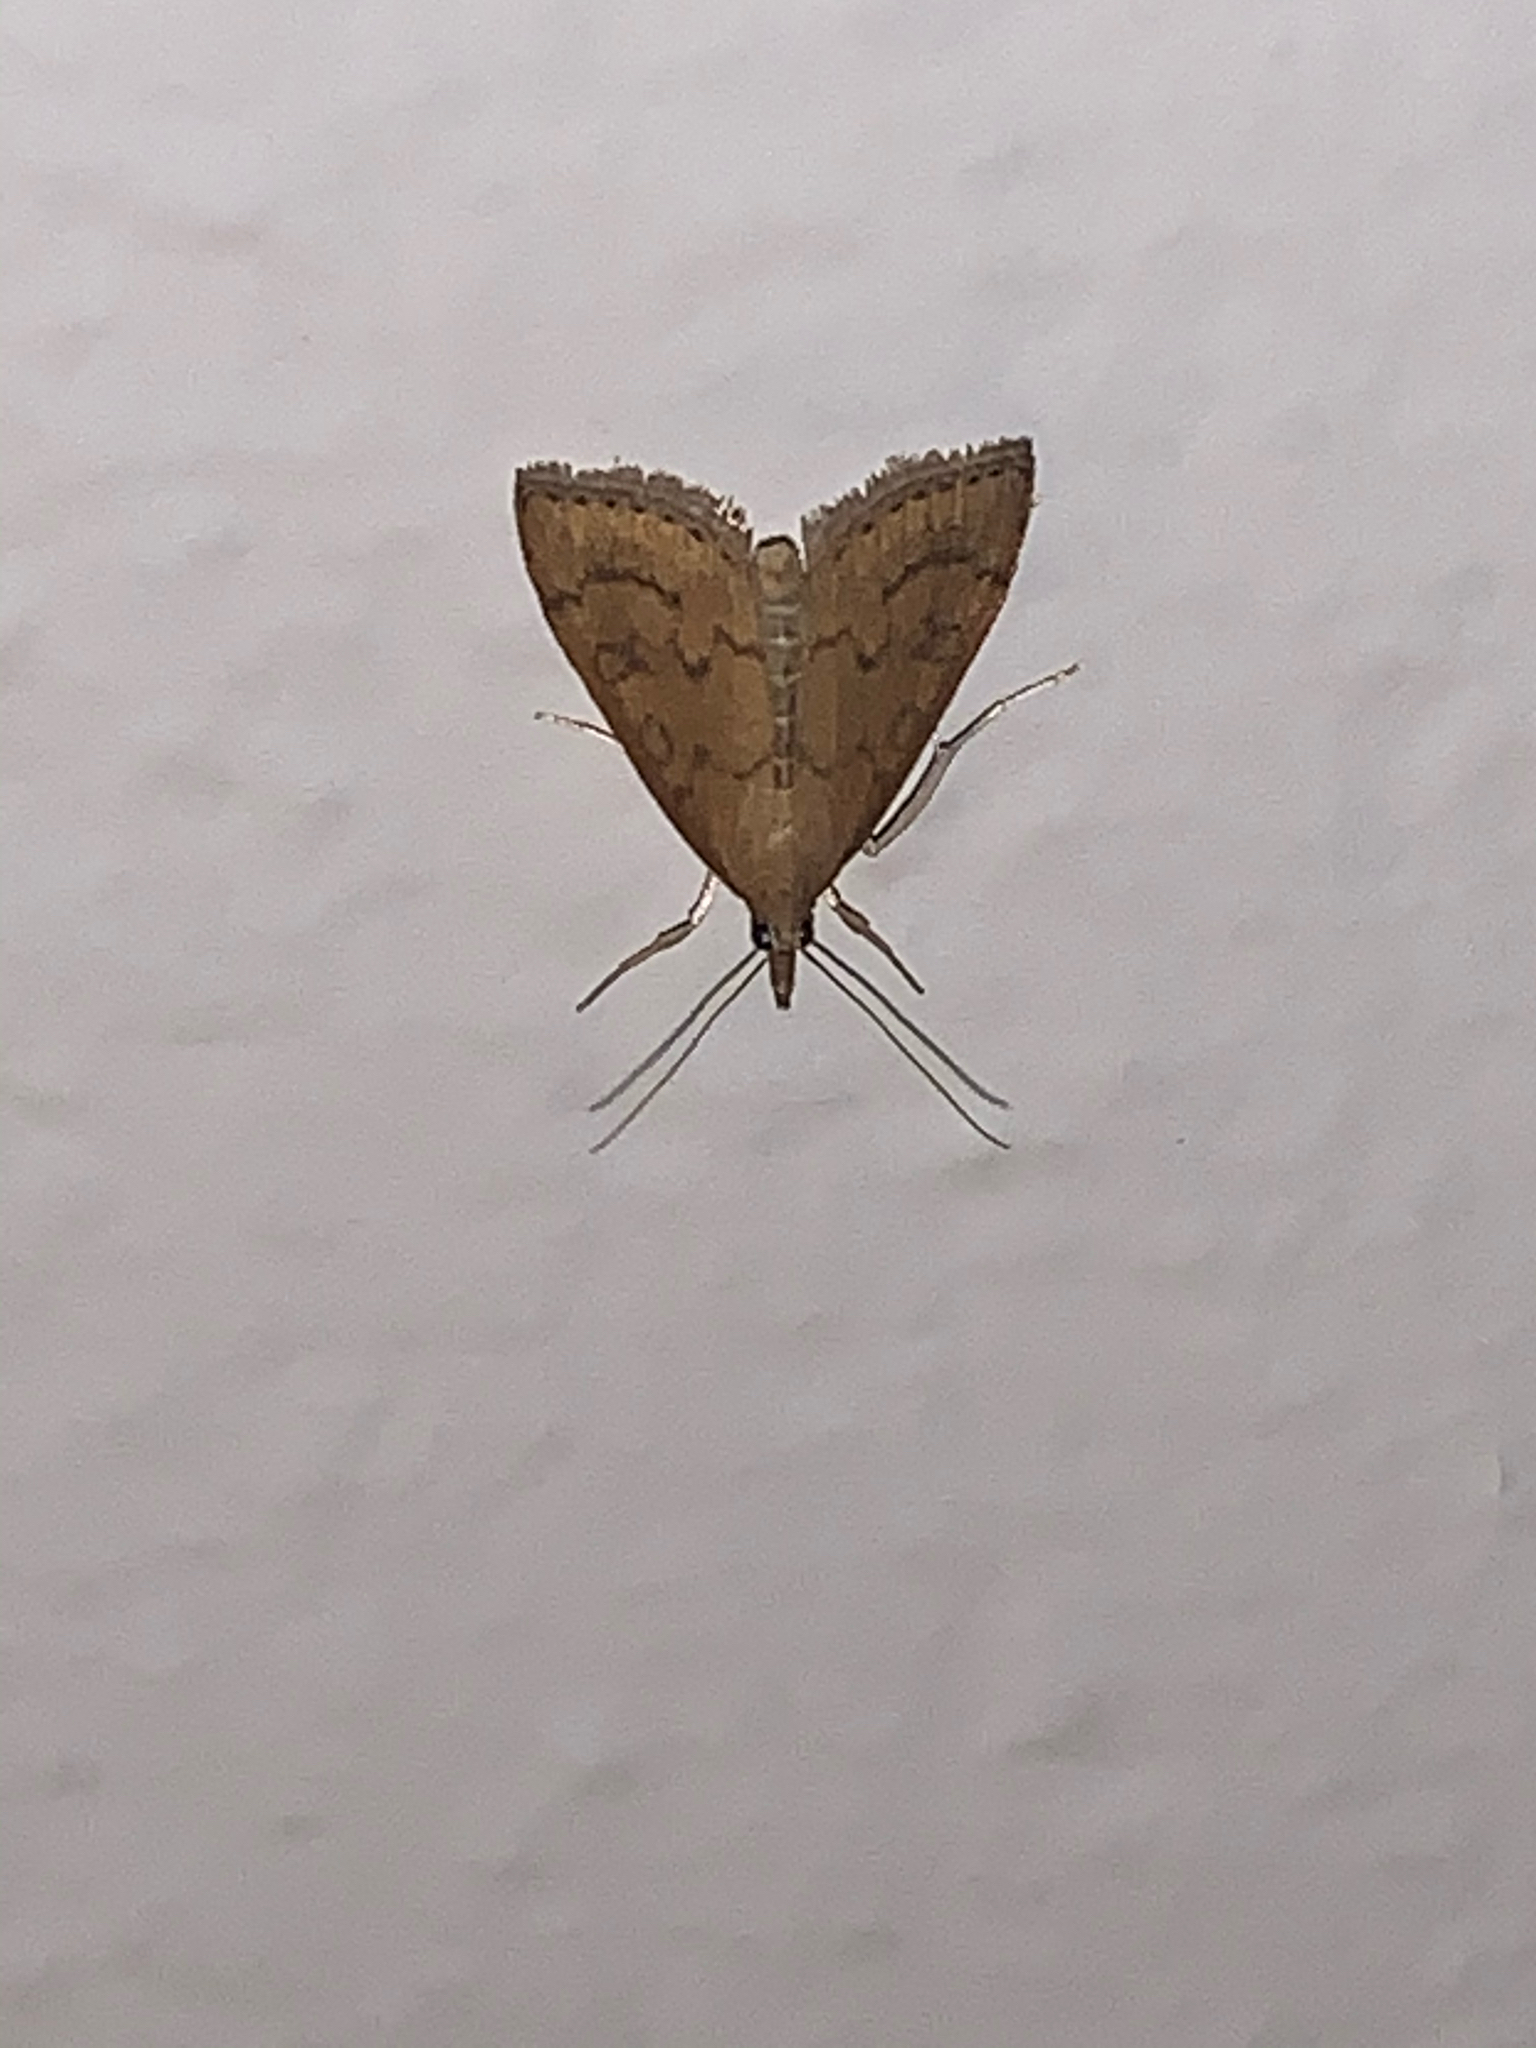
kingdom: Animalia
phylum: Arthropoda
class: Insecta
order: Lepidoptera
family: Crambidae
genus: Udea
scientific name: Udea rubigalis
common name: Celery leaftier moth
